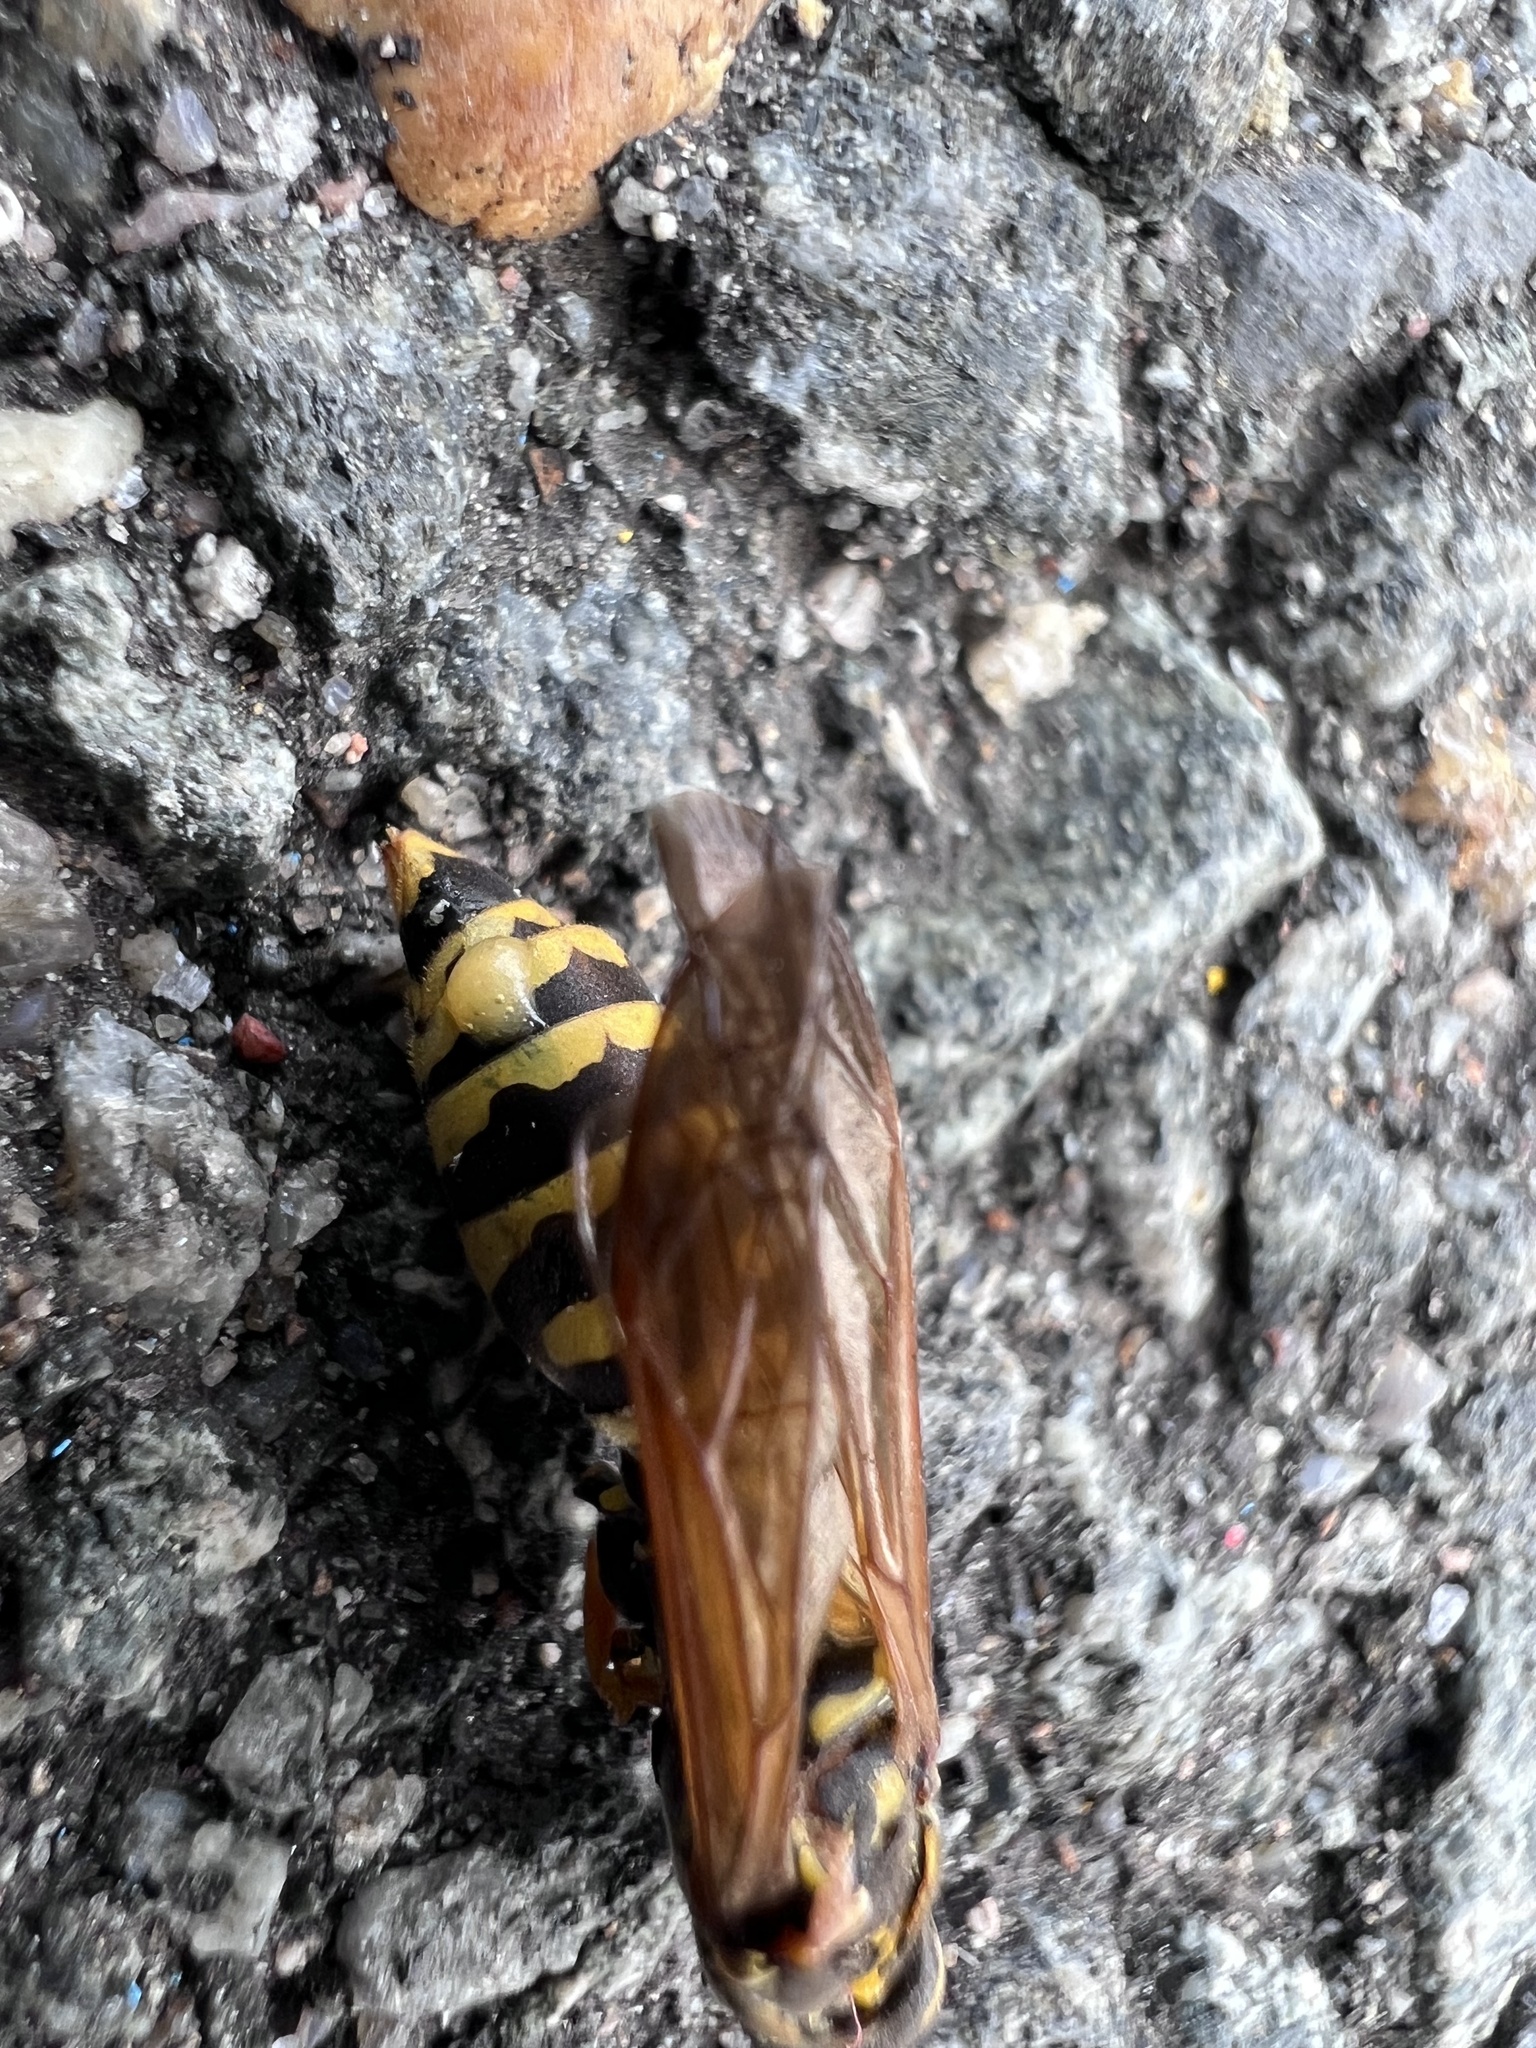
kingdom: Animalia
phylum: Arthropoda
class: Insecta
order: Hymenoptera
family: Eumenidae
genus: Polistes
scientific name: Polistes dominula
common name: Paper wasp
